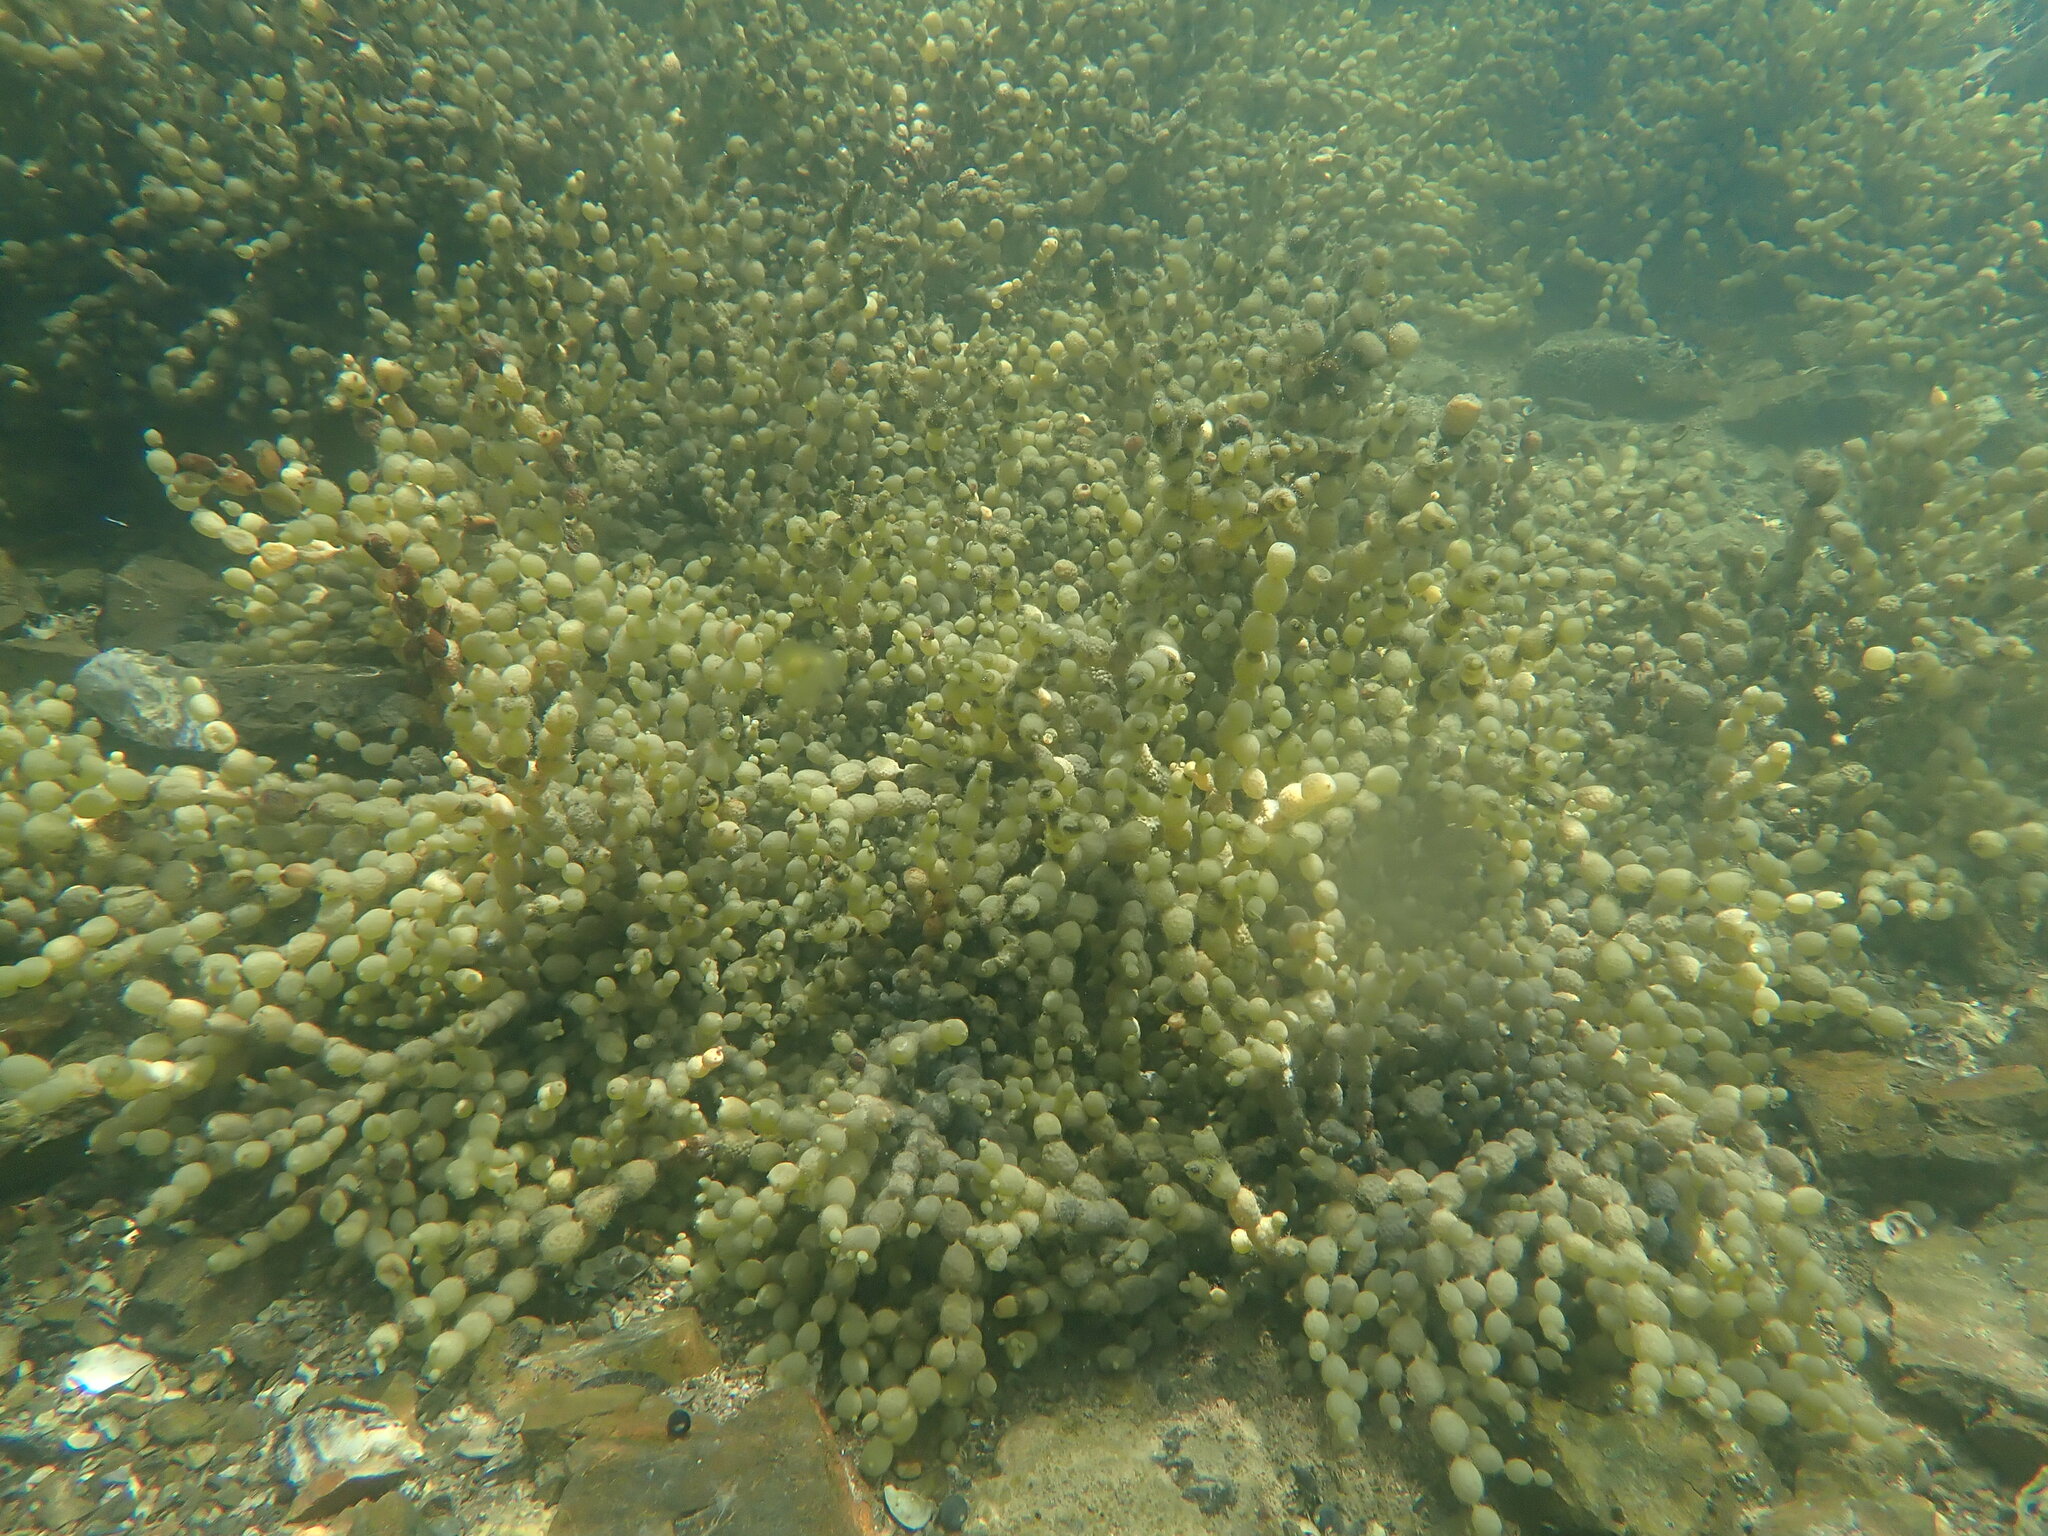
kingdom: Chromista
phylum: Ochrophyta
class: Phaeophyceae
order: Fucales
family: Hormosiraceae
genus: Hormosira
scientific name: Hormosira banksii
